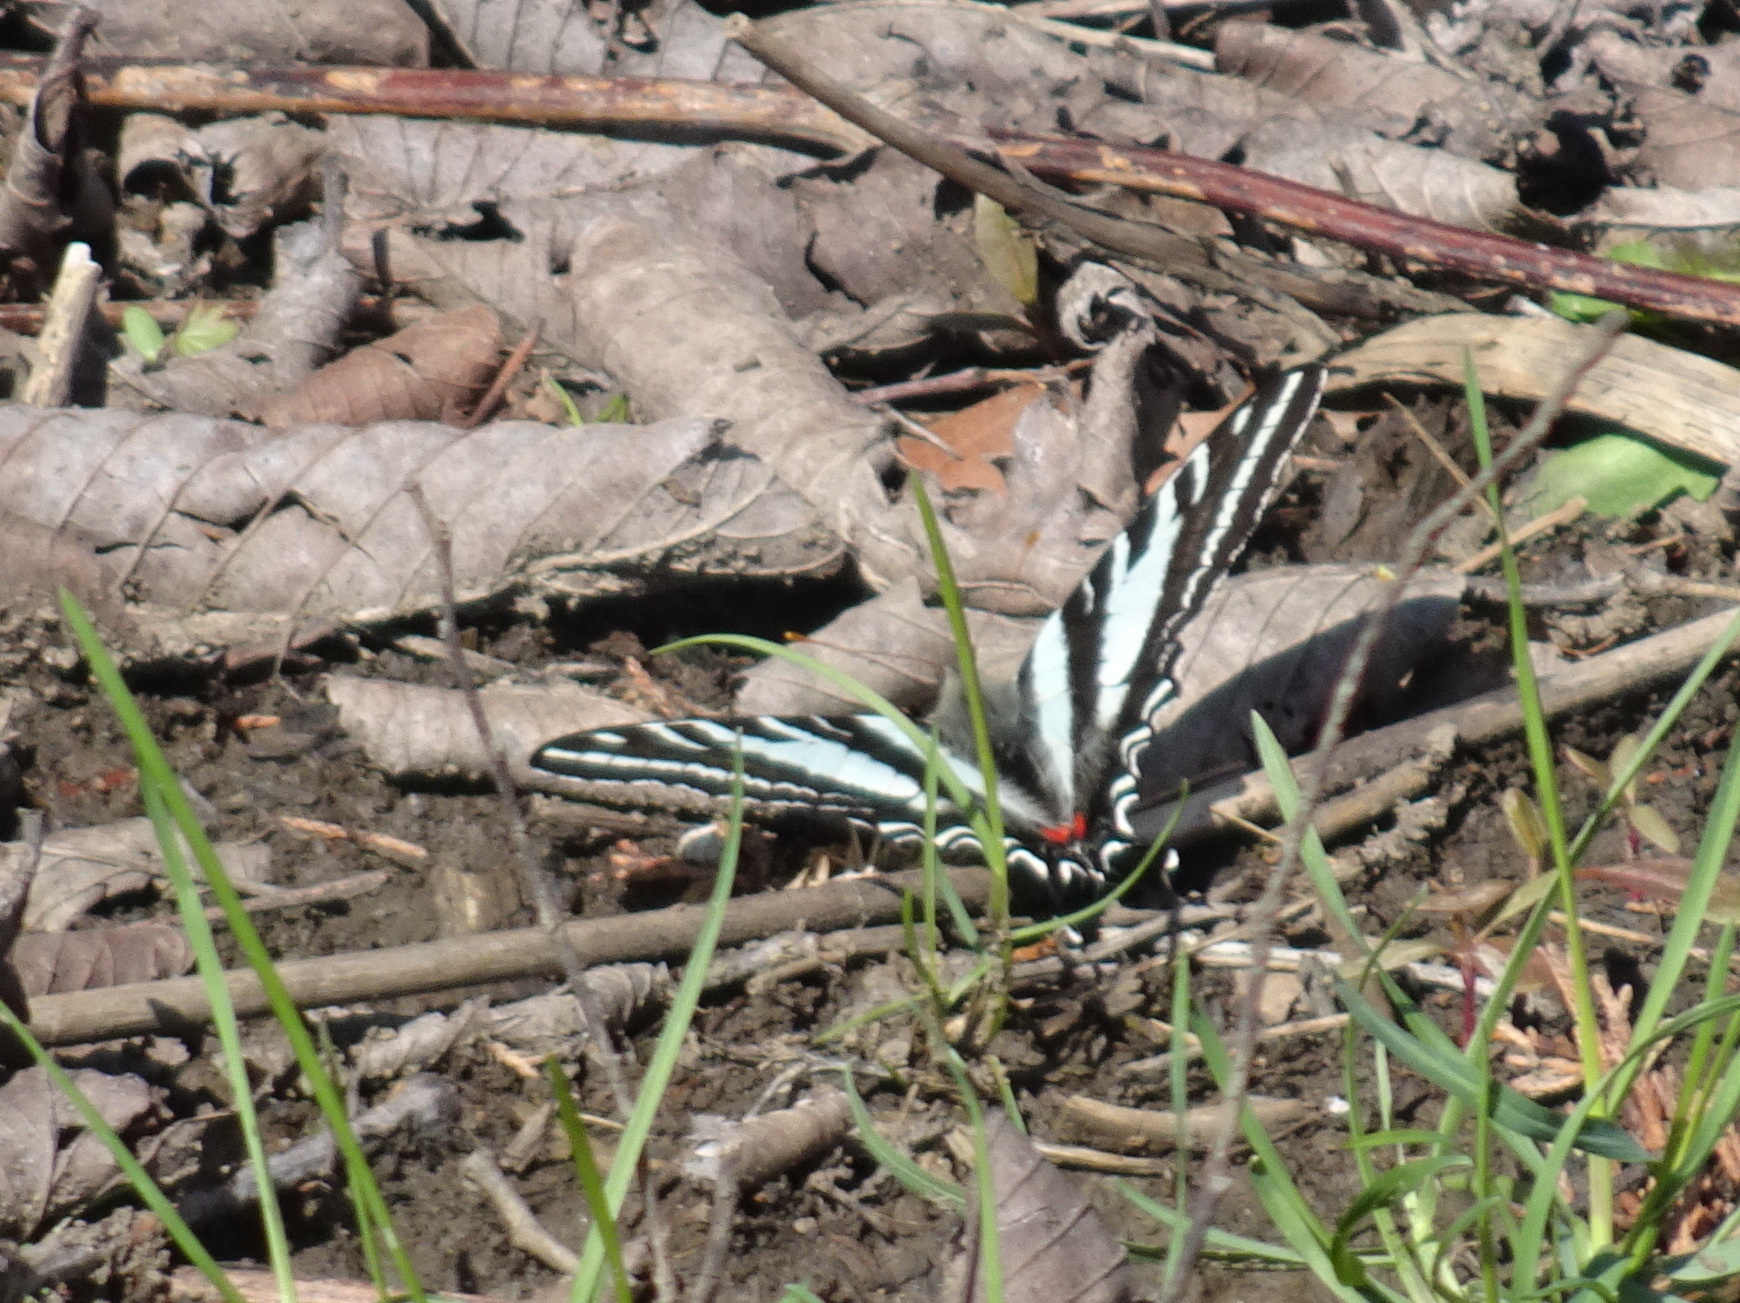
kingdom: Animalia
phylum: Arthropoda
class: Insecta
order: Lepidoptera
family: Papilionidae
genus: Protographium
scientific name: Protographium marcellus
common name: Zebra swallowtail
